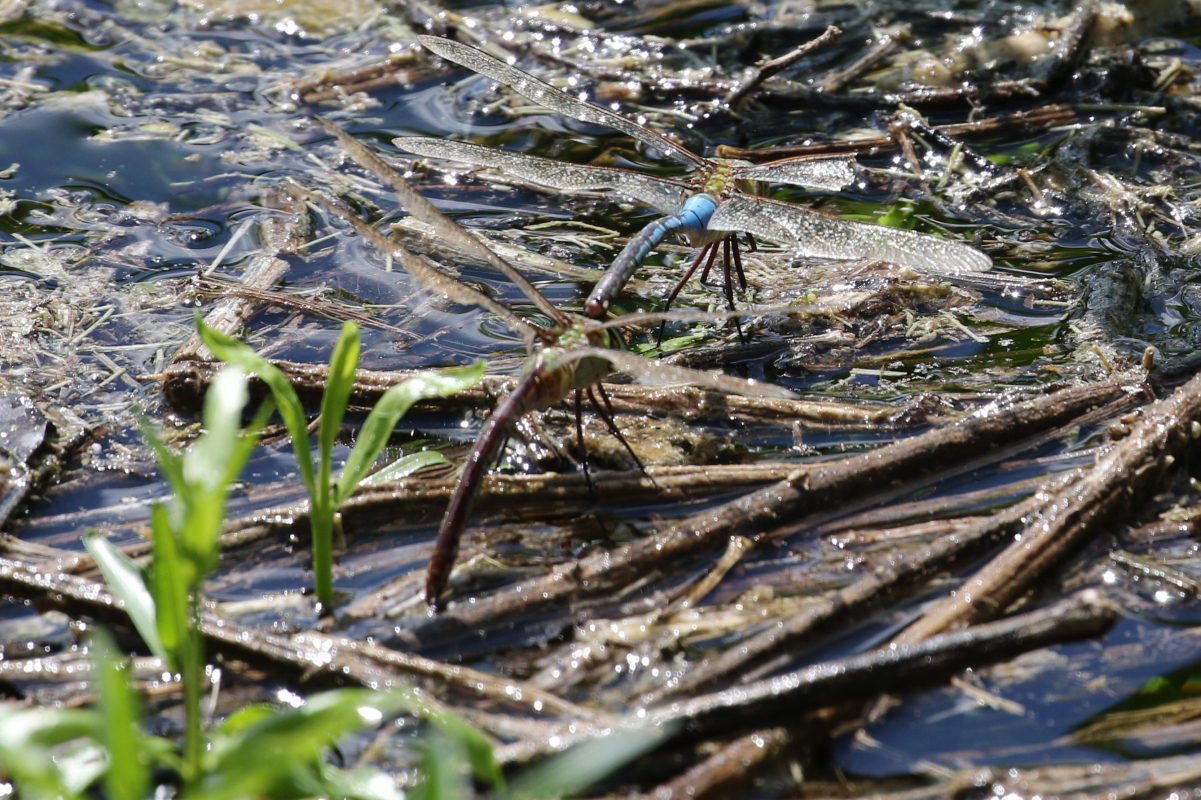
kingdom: Animalia
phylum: Arthropoda
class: Insecta
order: Odonata
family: Aeshnidae
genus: Anax
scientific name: Anax junius
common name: Common green darner
